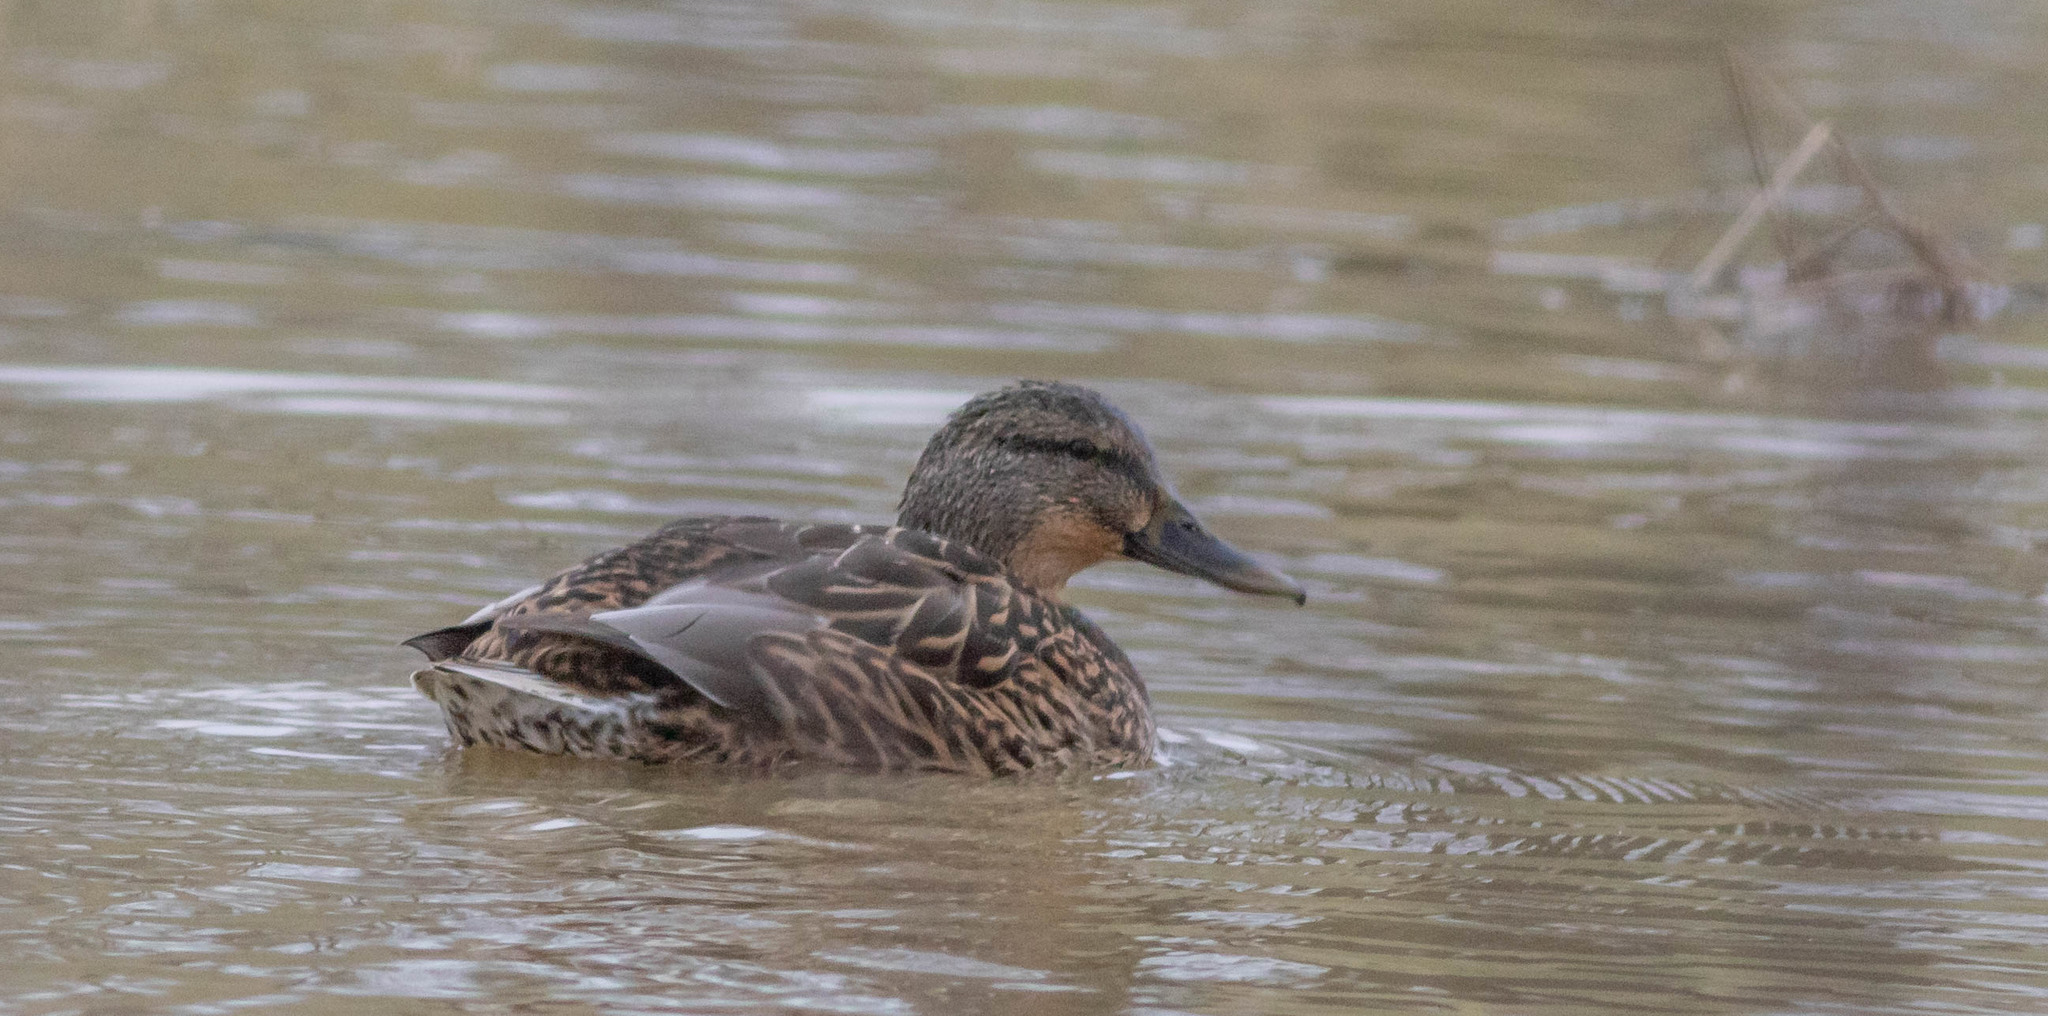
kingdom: Animalia
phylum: Chordata
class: Aves
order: Anseriformes
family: Anatidae
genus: Anas
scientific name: Anas platyrhynchos
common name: Mallard
